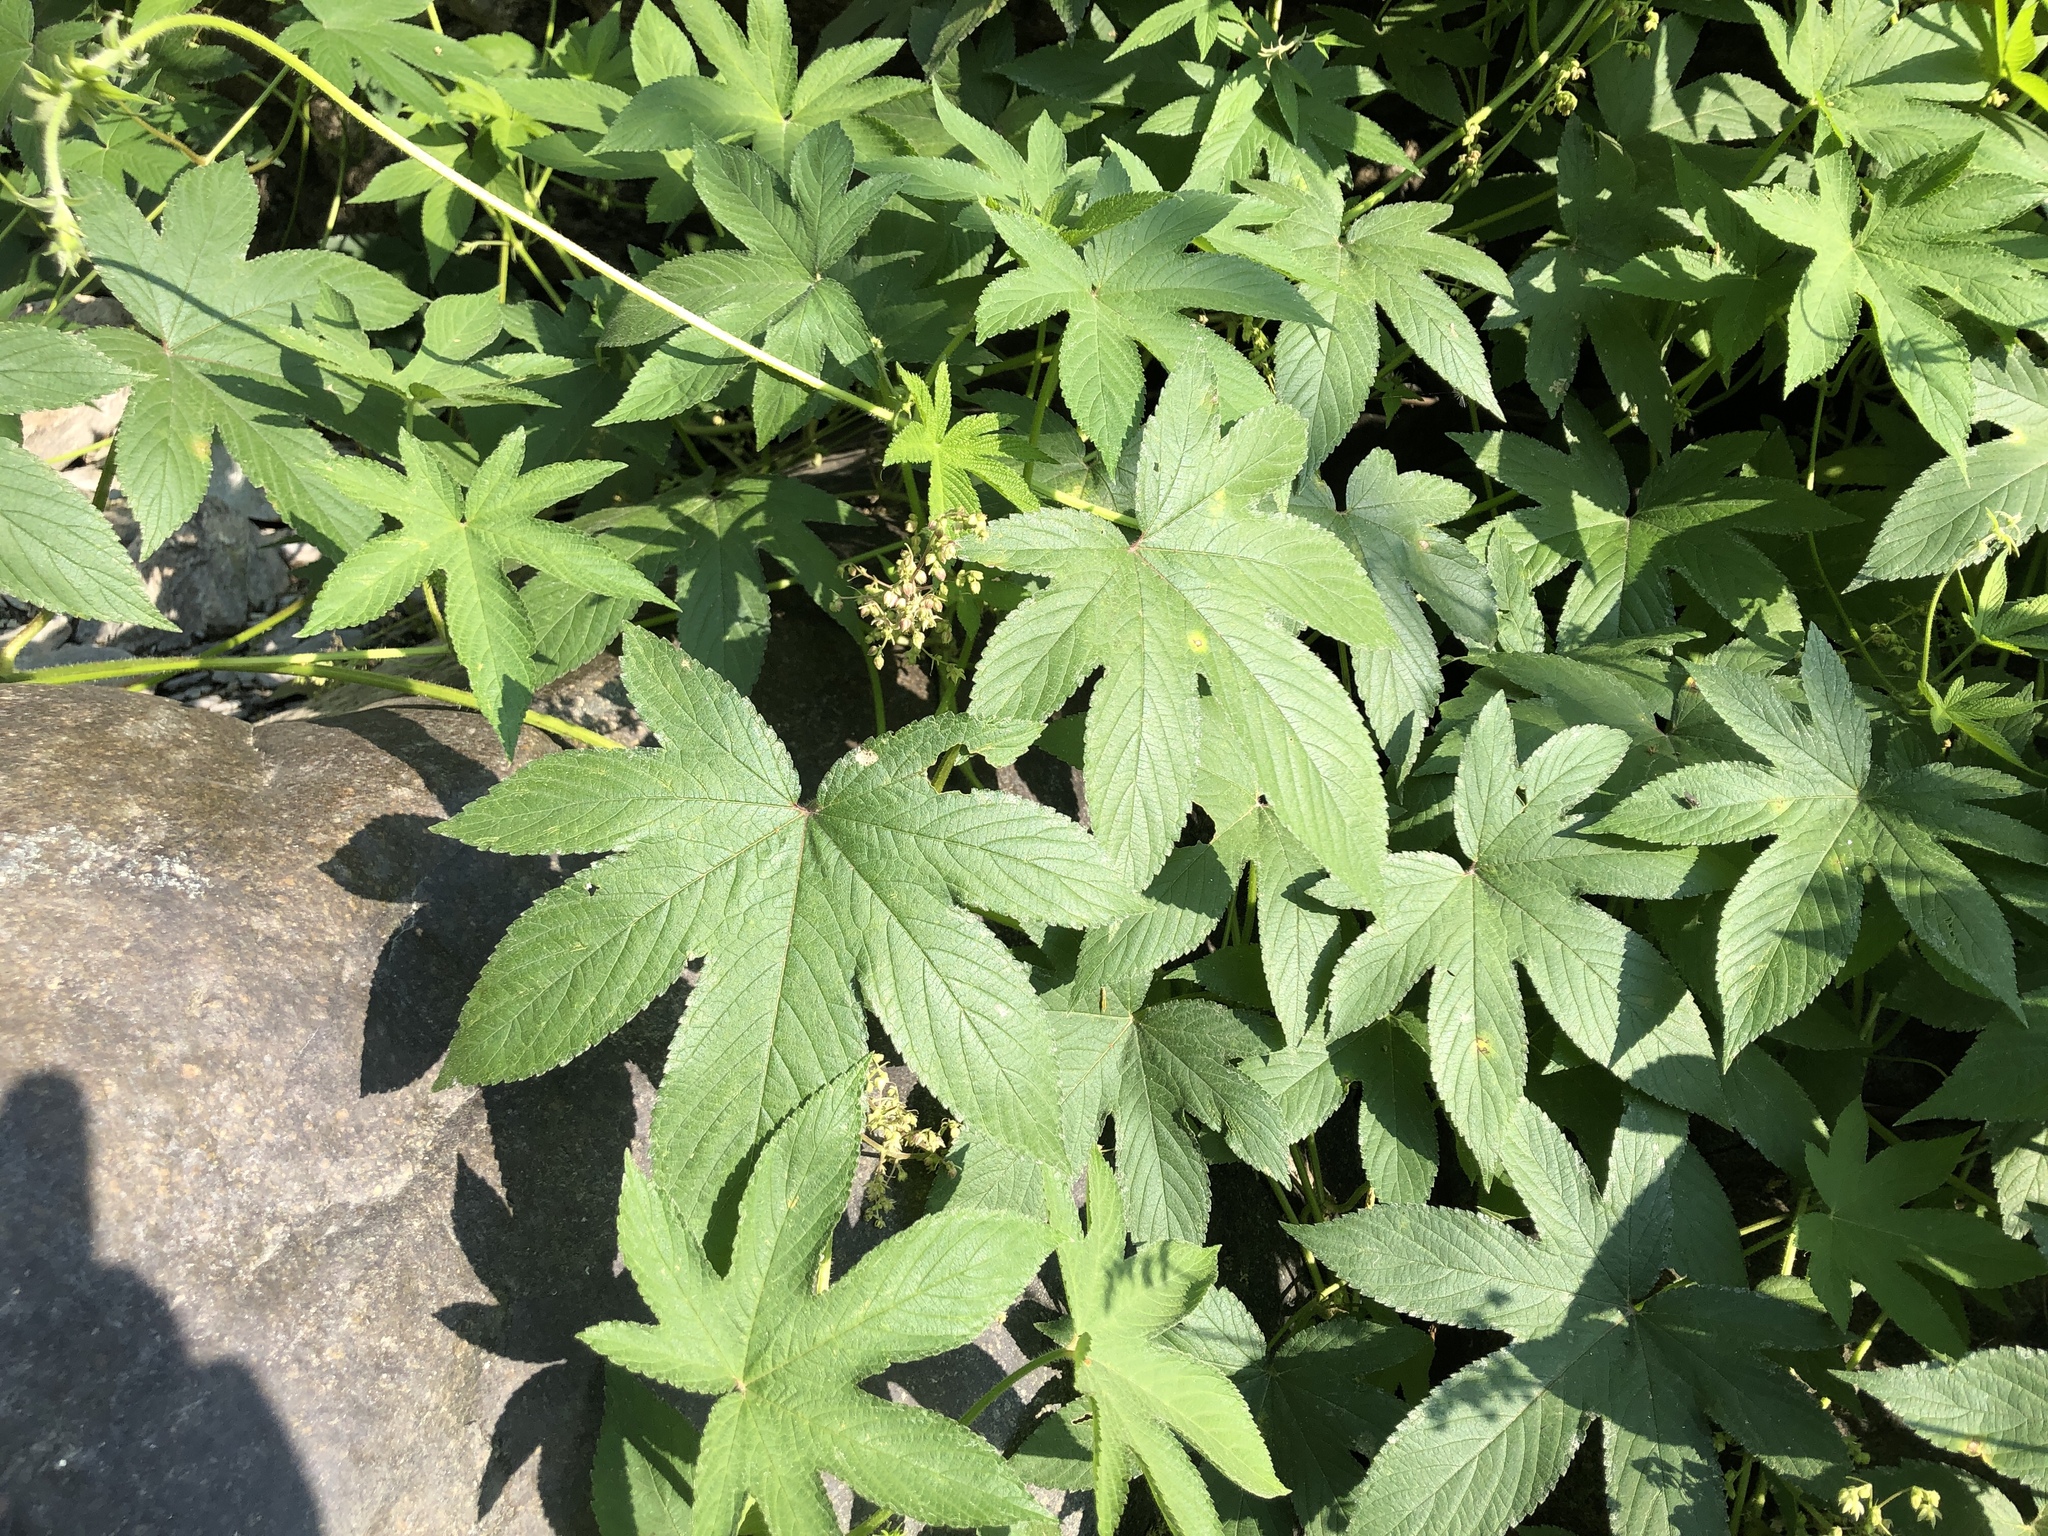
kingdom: Plantae
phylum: Tracheophyta
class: Magnoliopsida
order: Rosales
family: Cannabaceae
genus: Humulus
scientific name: Humulus scandens
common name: Japanese hop
